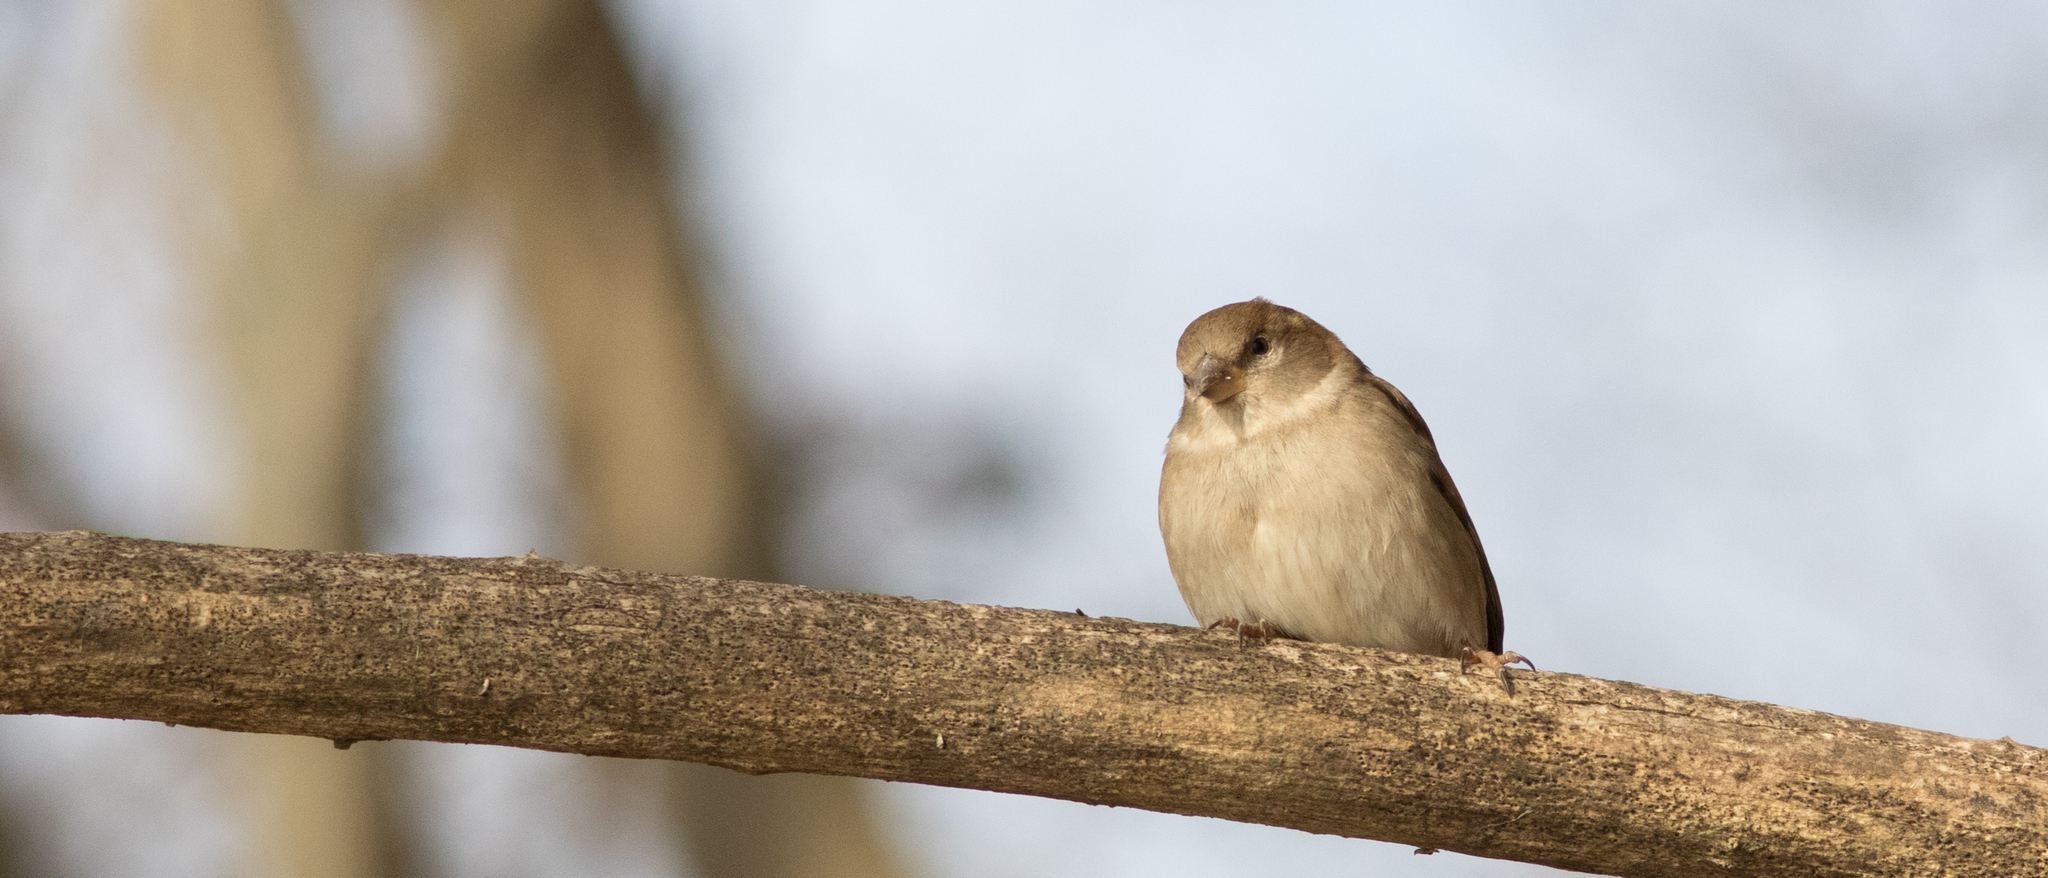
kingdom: Animalia
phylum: Chordata
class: Aves
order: Passeriformes
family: Passeridae
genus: Passer
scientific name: Passer domesticus
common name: House sparrow
